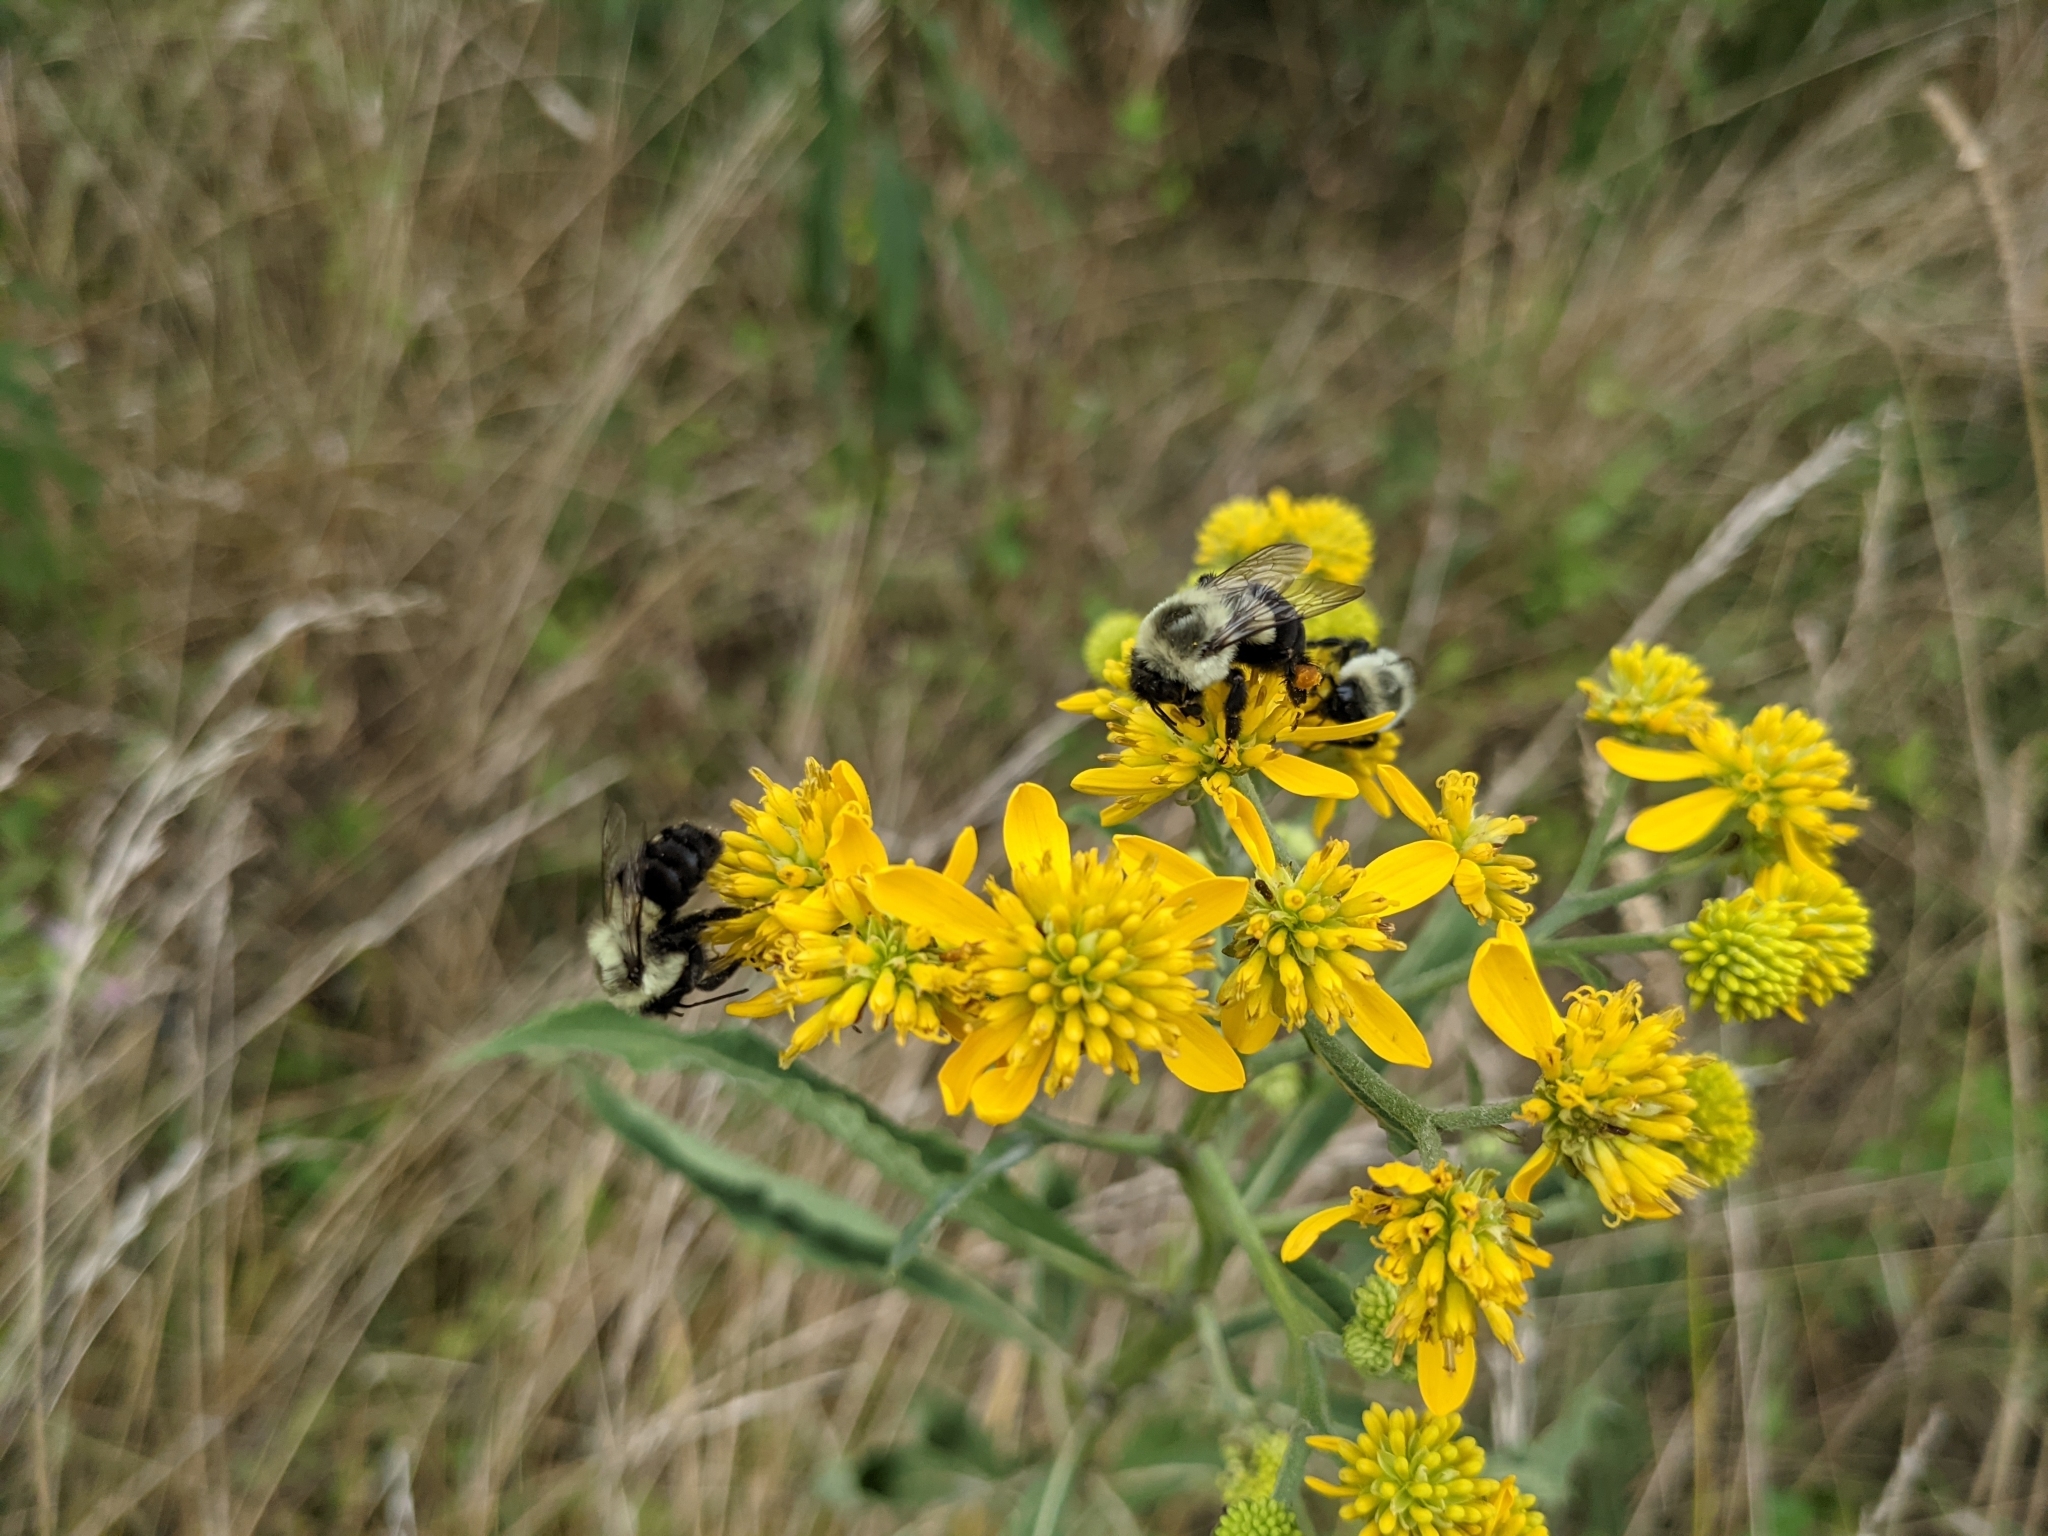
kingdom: Animalia
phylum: Arthropoda
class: Insecta
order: Hymenoptera
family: Apidae
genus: Bombus
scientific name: Bombus impatiens
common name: Common eastern bumble bee
